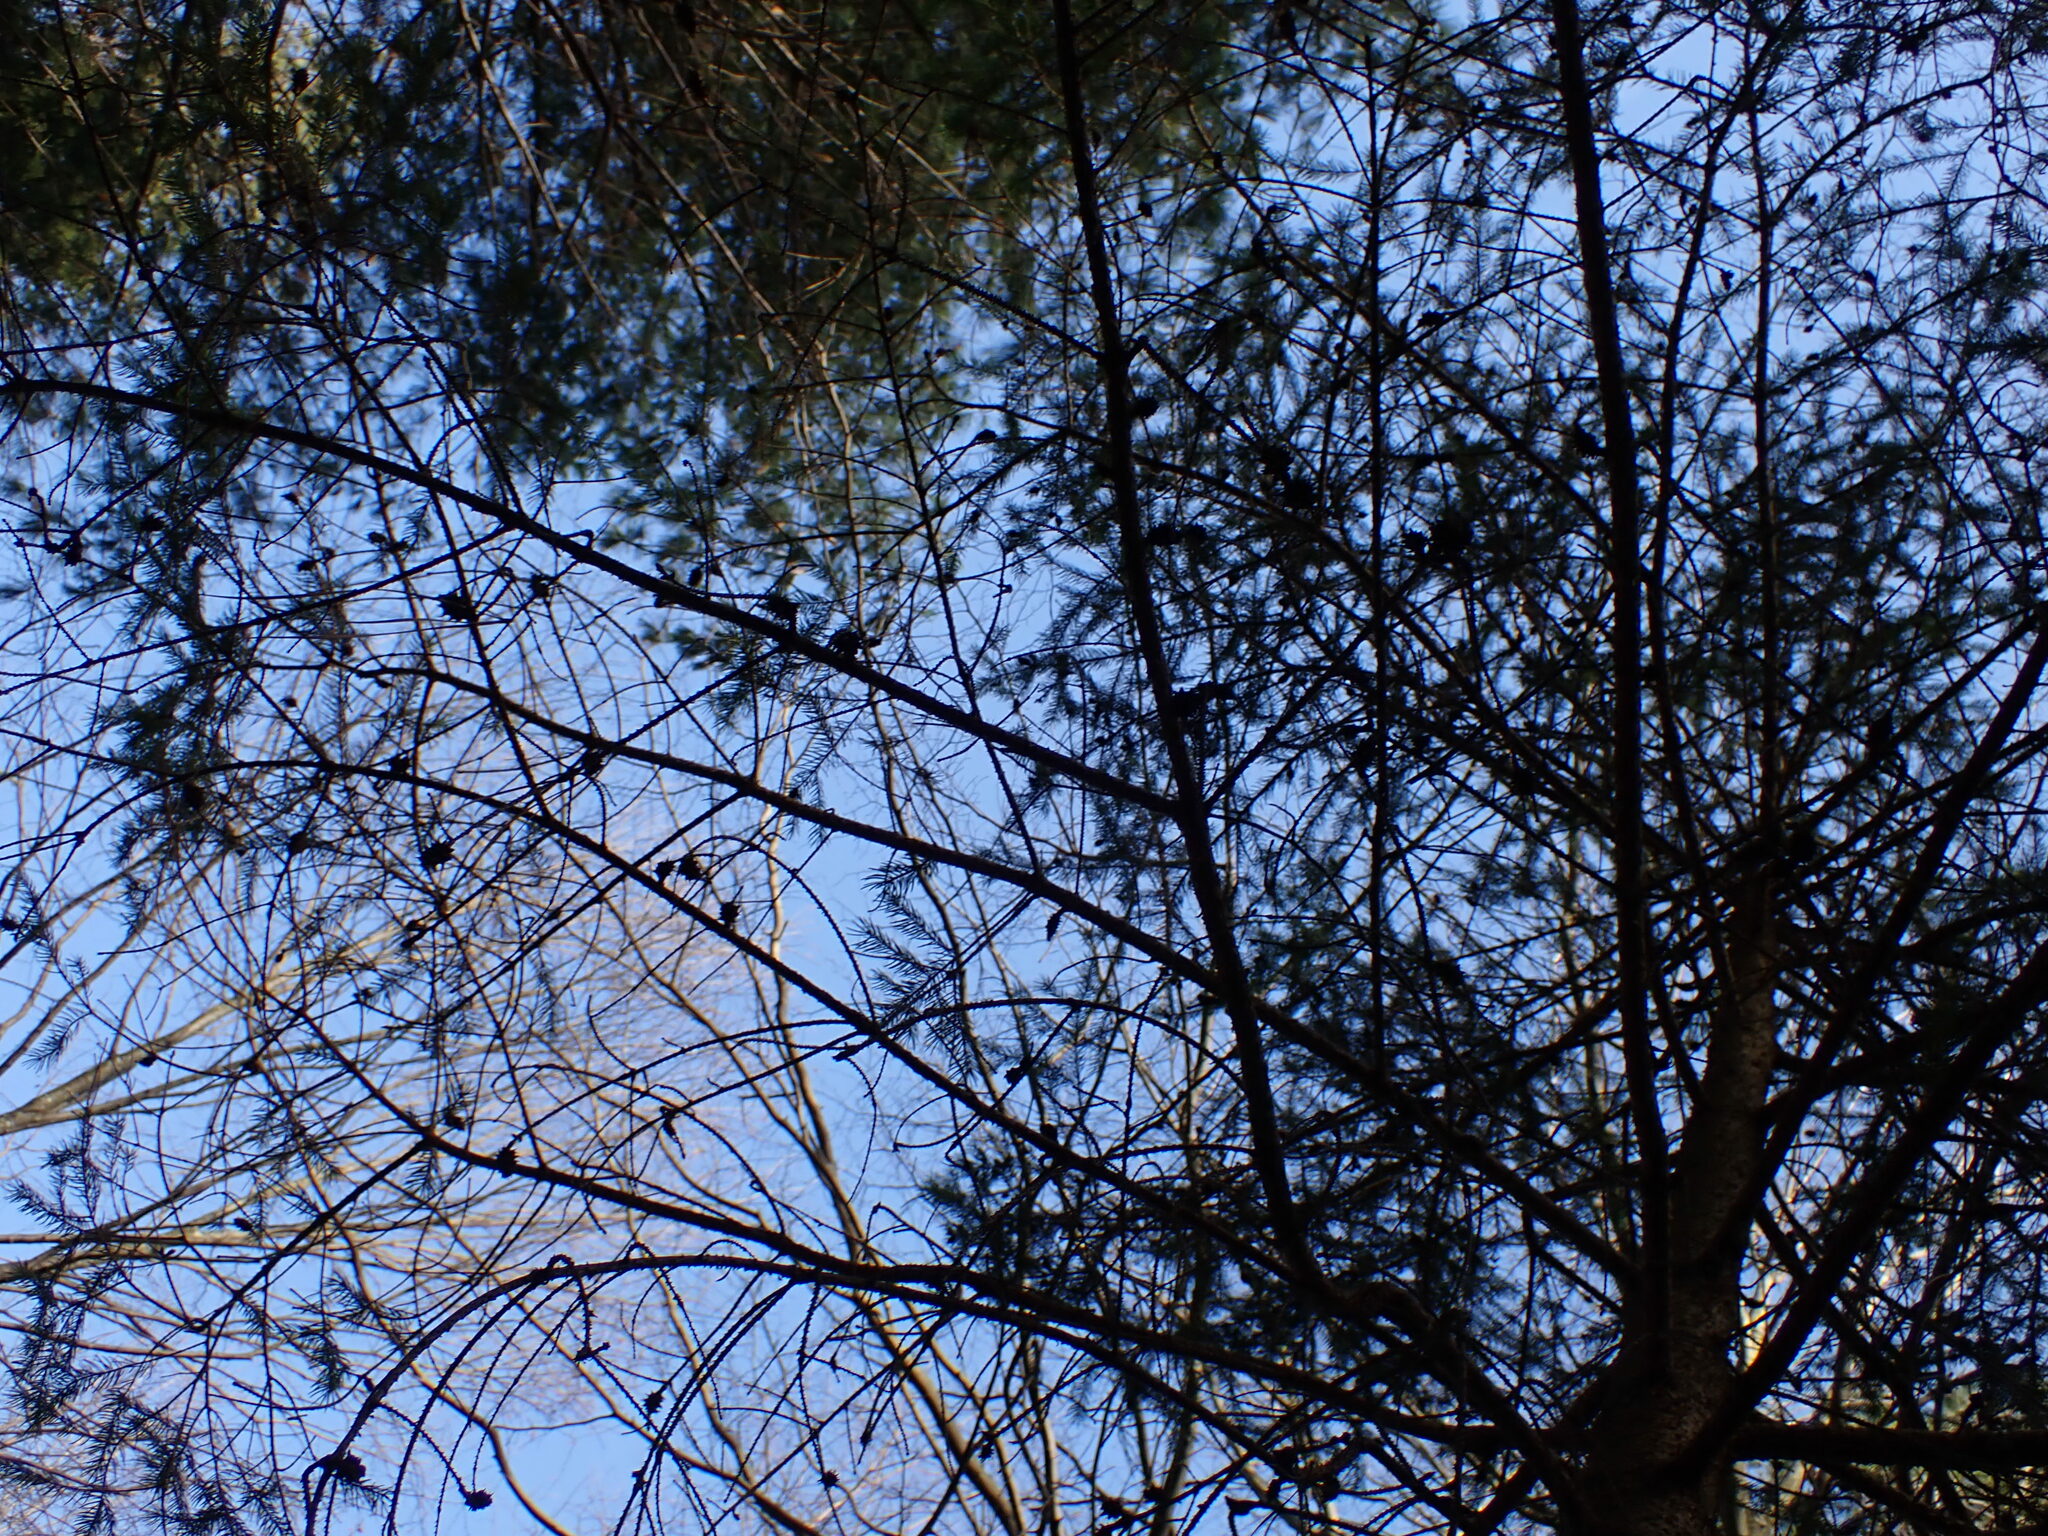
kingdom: Animalia
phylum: Arthropoda
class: Insecta
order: Hemiptera
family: Adelgidae
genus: Adelges
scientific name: Adelges abietis
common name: Eastern spruce gall adelgid
